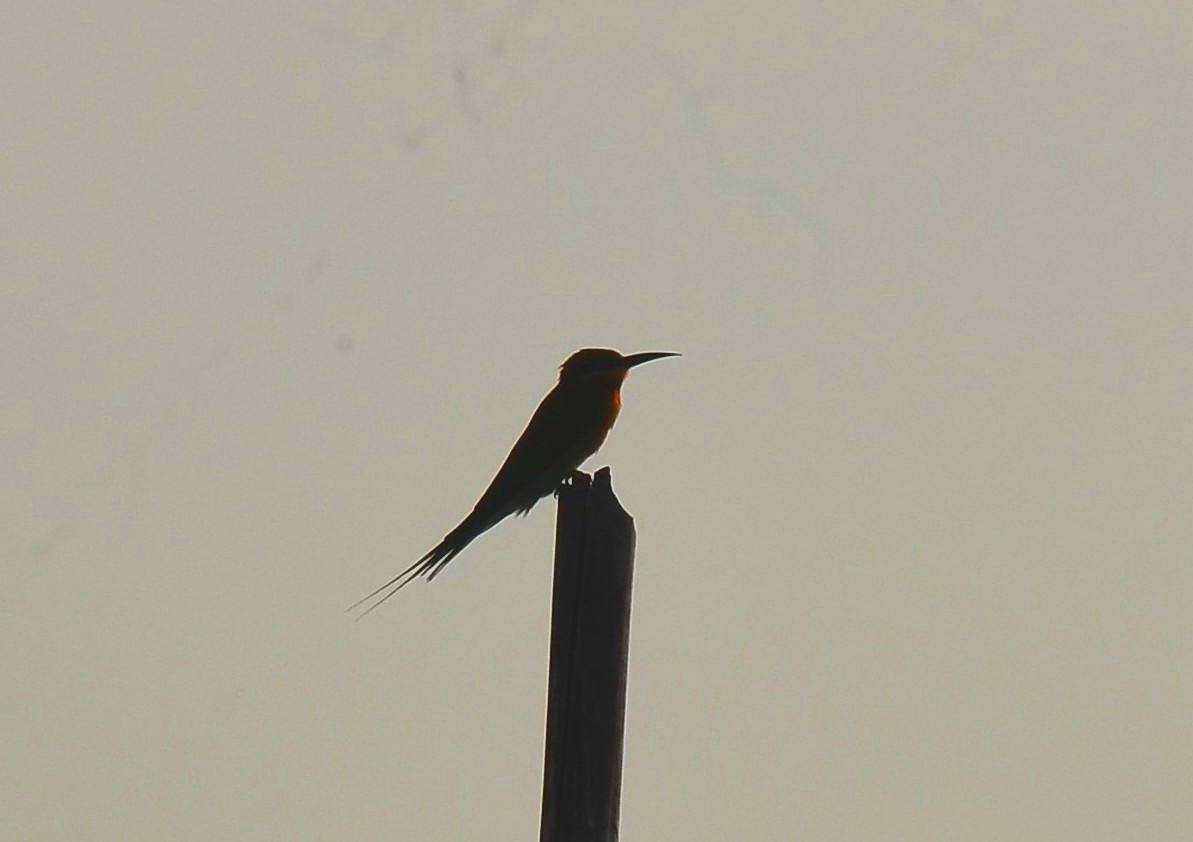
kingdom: Animalia
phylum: Chordata
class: Aves
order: Coraciiformes
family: Meropidae
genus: Merops
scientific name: Merops philippinus
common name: Blue-tailed bee-eater
